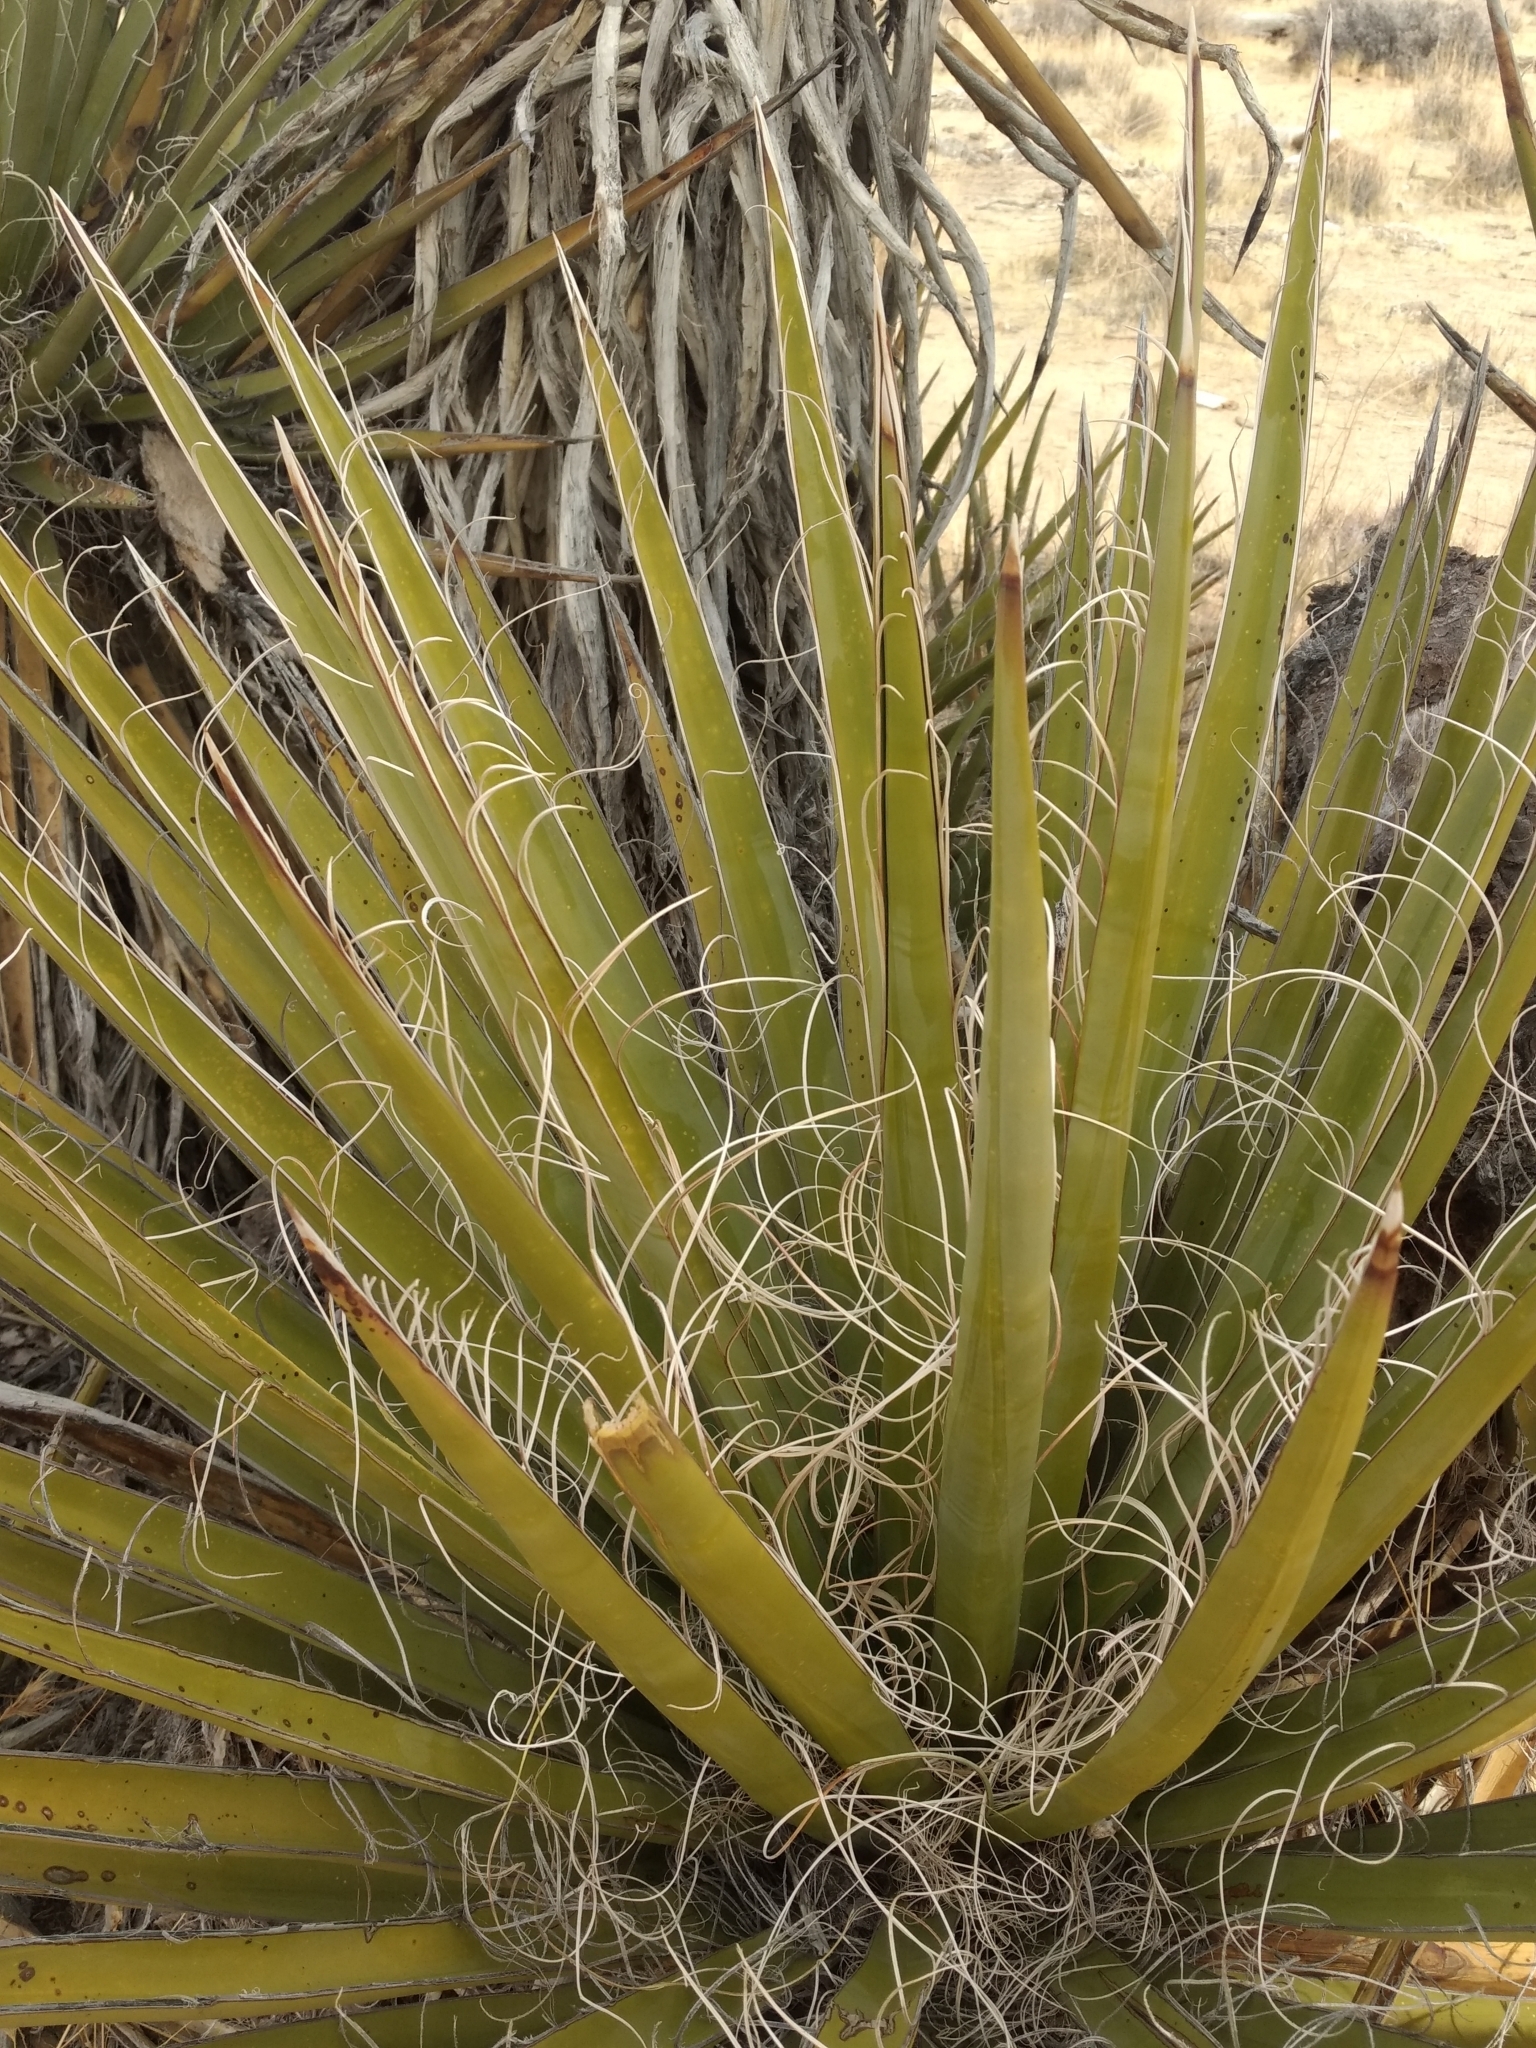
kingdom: Plantae
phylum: Tracheophyta
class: Liliopsida
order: Asparagales
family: Asparagaceae
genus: Yucca
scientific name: Yucca schidigera
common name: Mojave yucca
